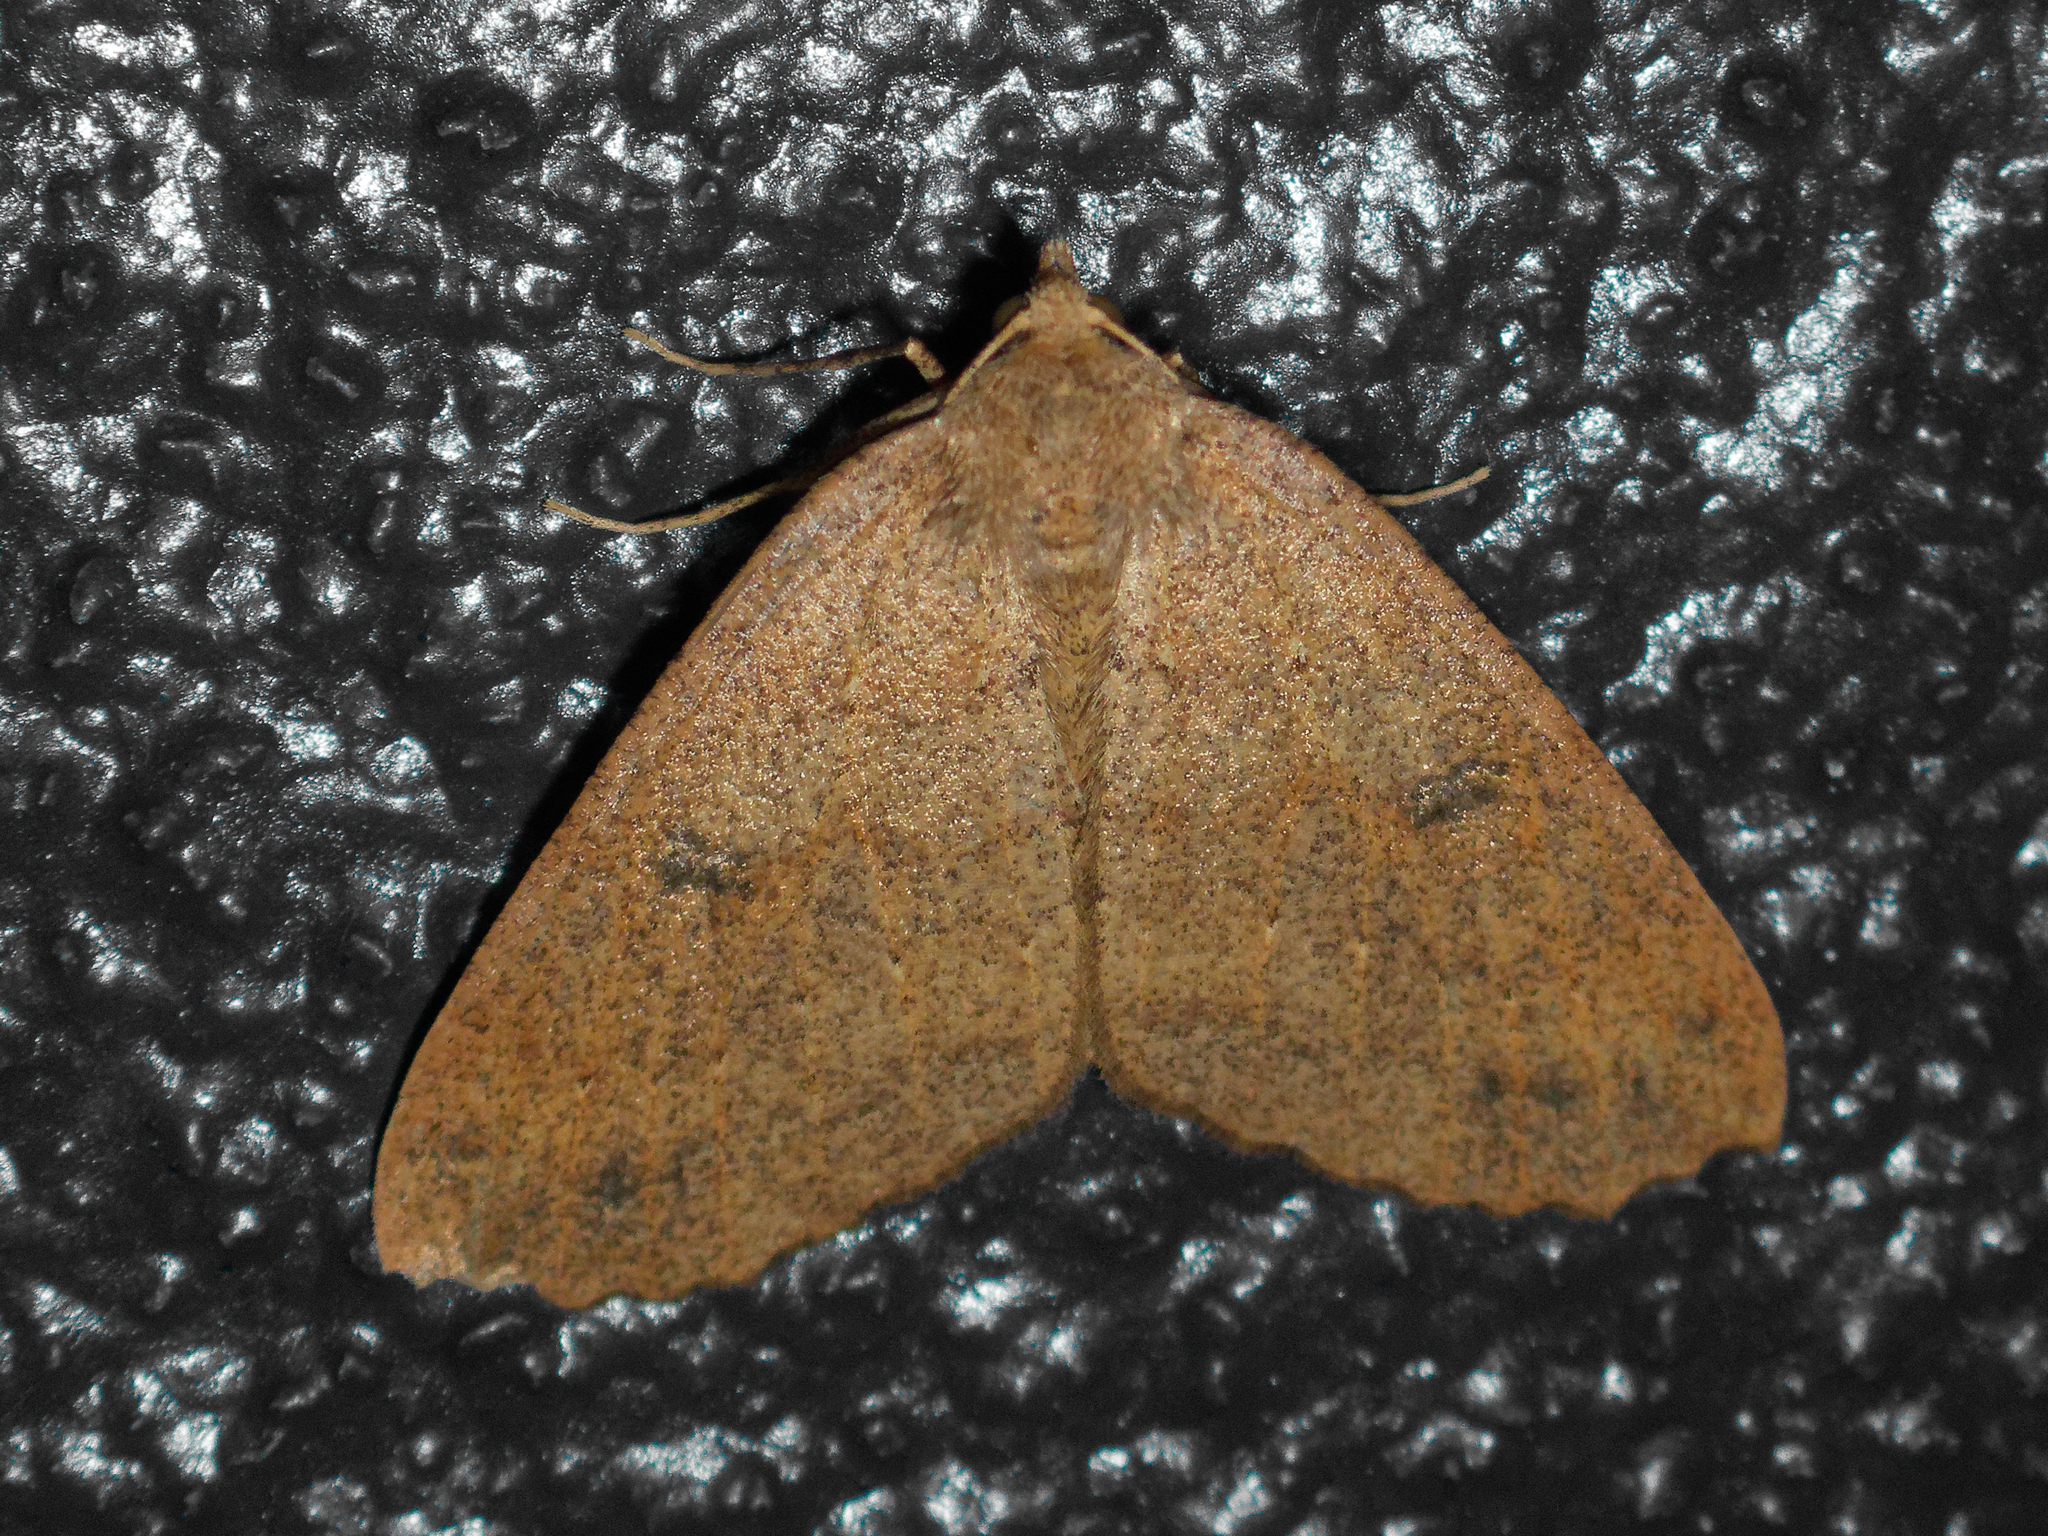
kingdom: Animalia
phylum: Arthropoda
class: Insecta
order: Lepidoptera
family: Geometridae
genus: Cleora
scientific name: Cleora scriptaria
